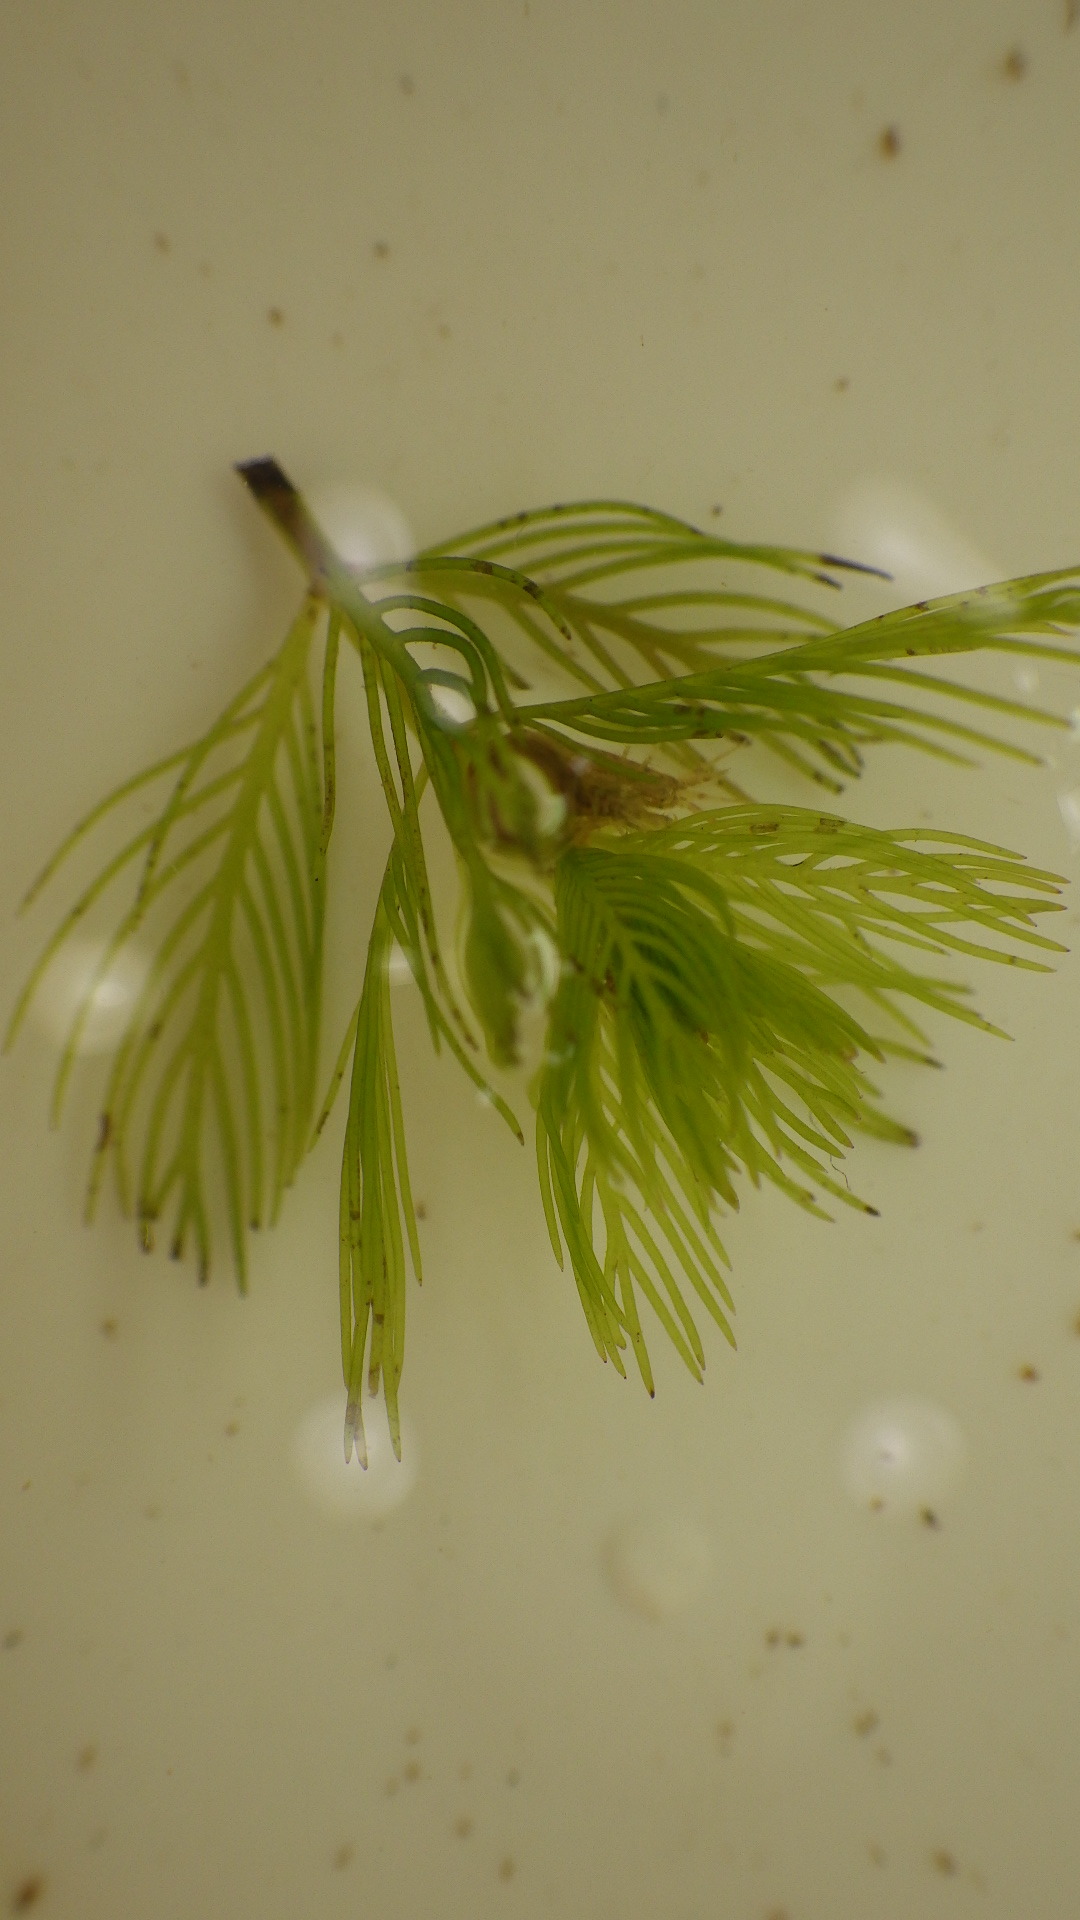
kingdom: Plantae
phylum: Tracheophyta
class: Magnoliopsida
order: Saxifragales
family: Haloragaceae
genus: Myriophyllum
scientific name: Myriophyllum spicatum
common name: Spiked water-milfoil
